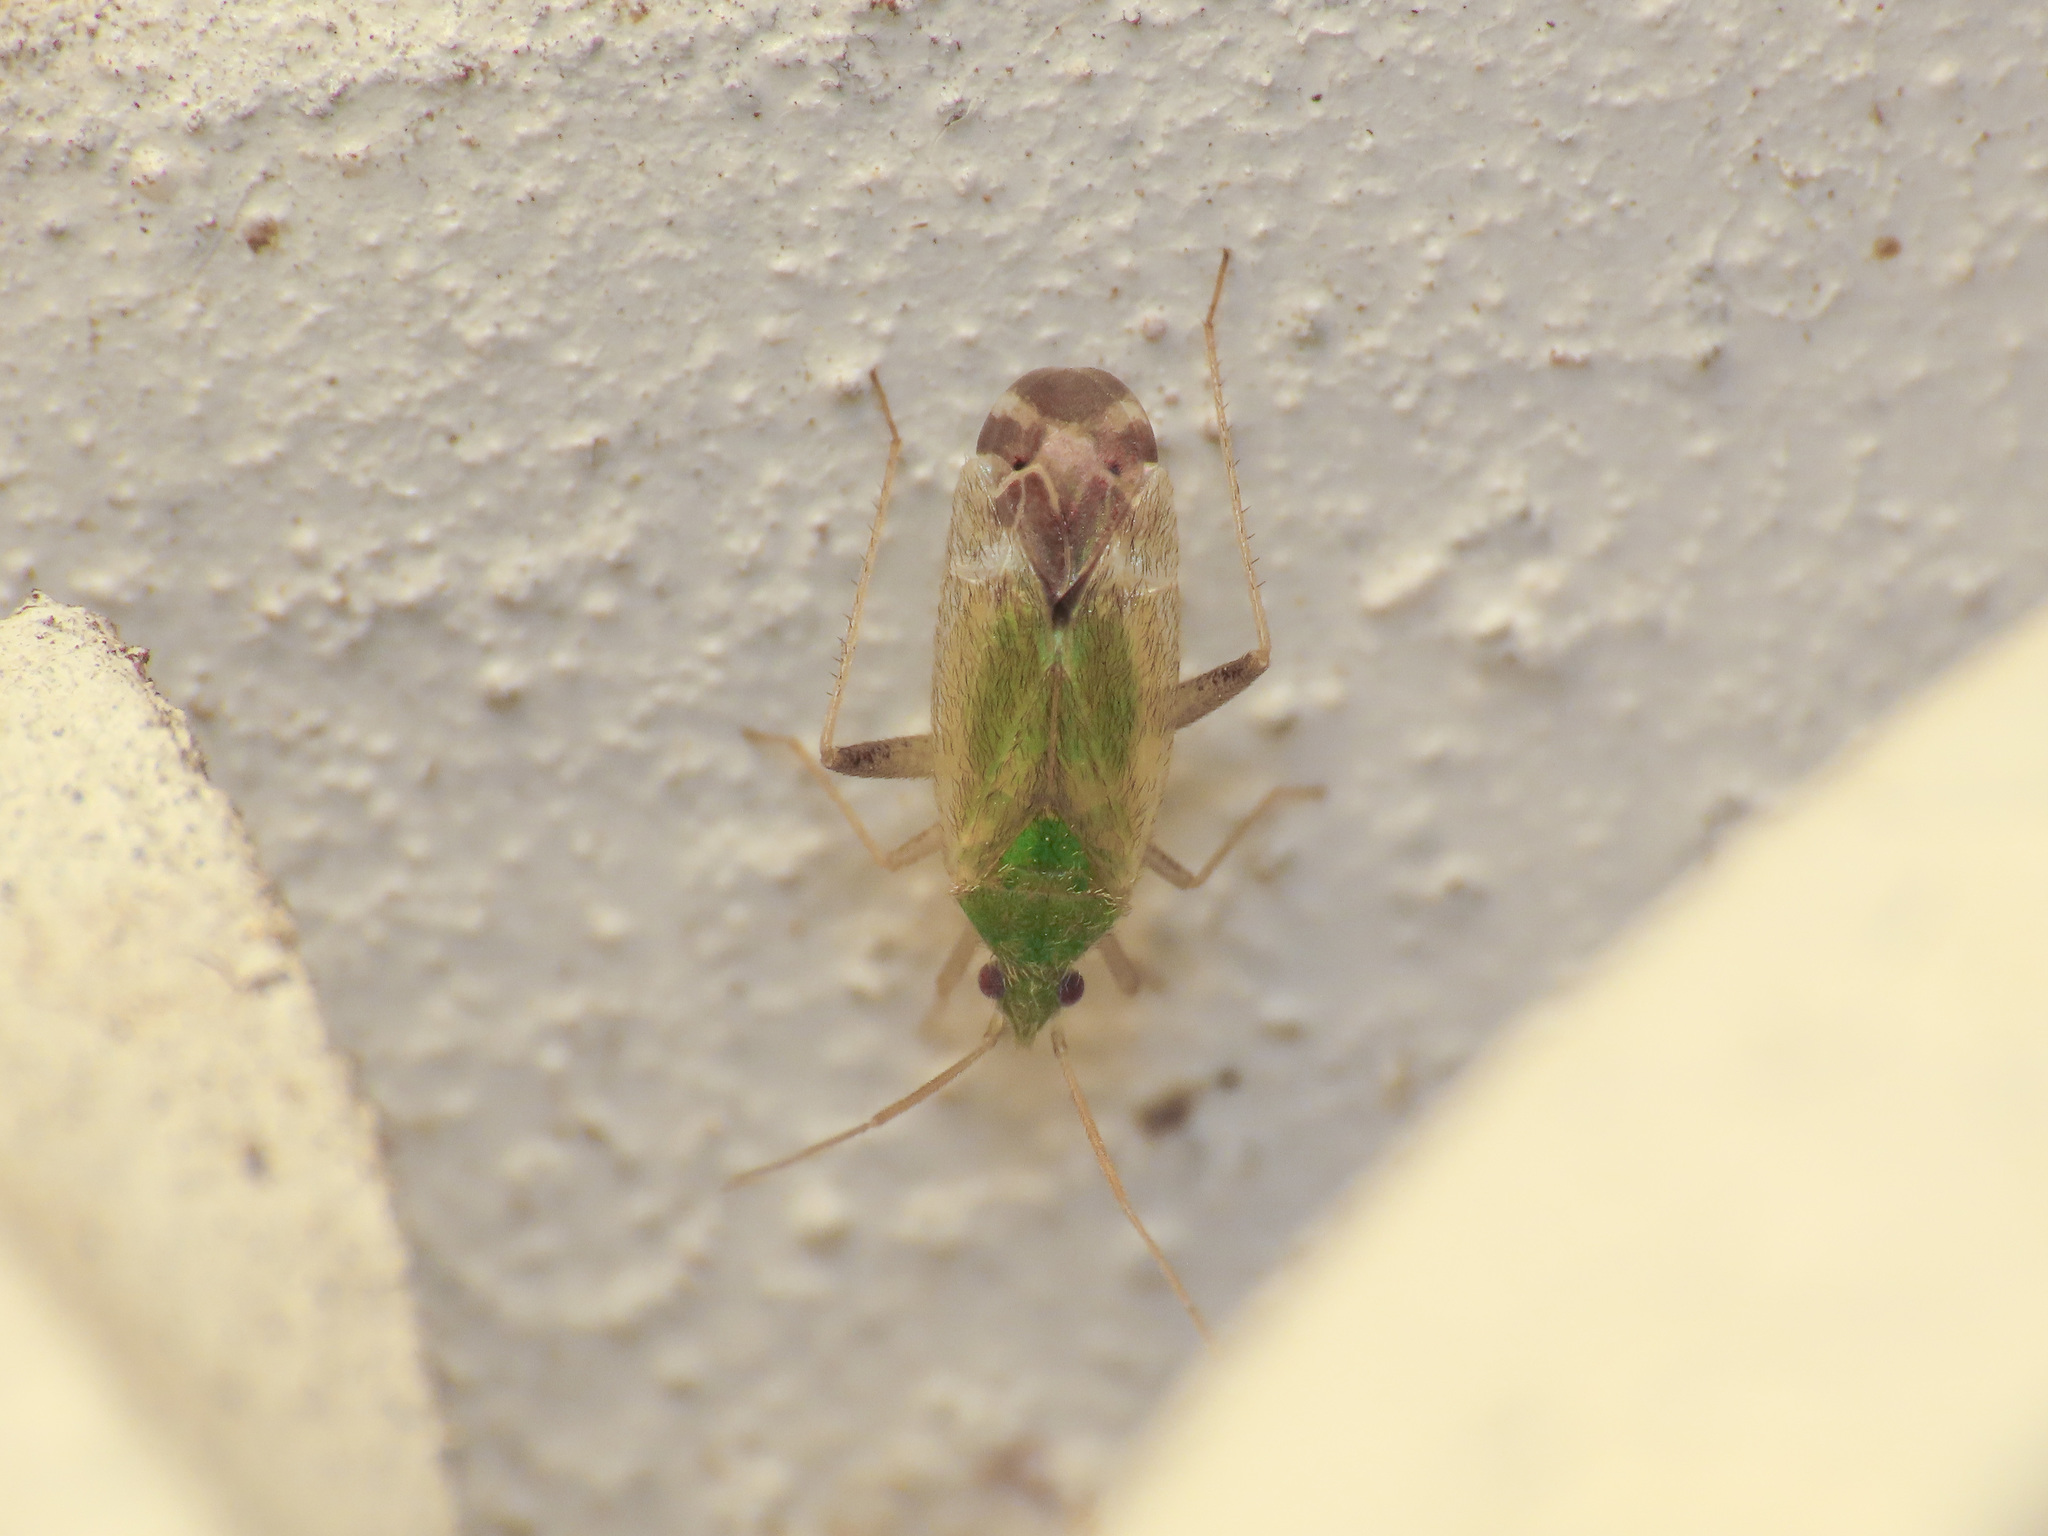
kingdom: Animalia
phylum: Arthropoda
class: Insecta
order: Hemiptera
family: Miridae
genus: Macrotylus
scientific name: Macrotylus horvathi
